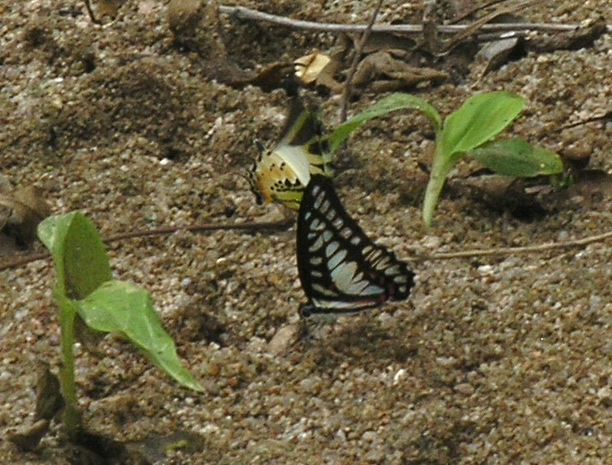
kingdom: Animalia
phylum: Arthropoda
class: Insecta
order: Lepidoptera
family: Papilionidae
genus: Graphium
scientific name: Graphium eurypylus
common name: Great jay
